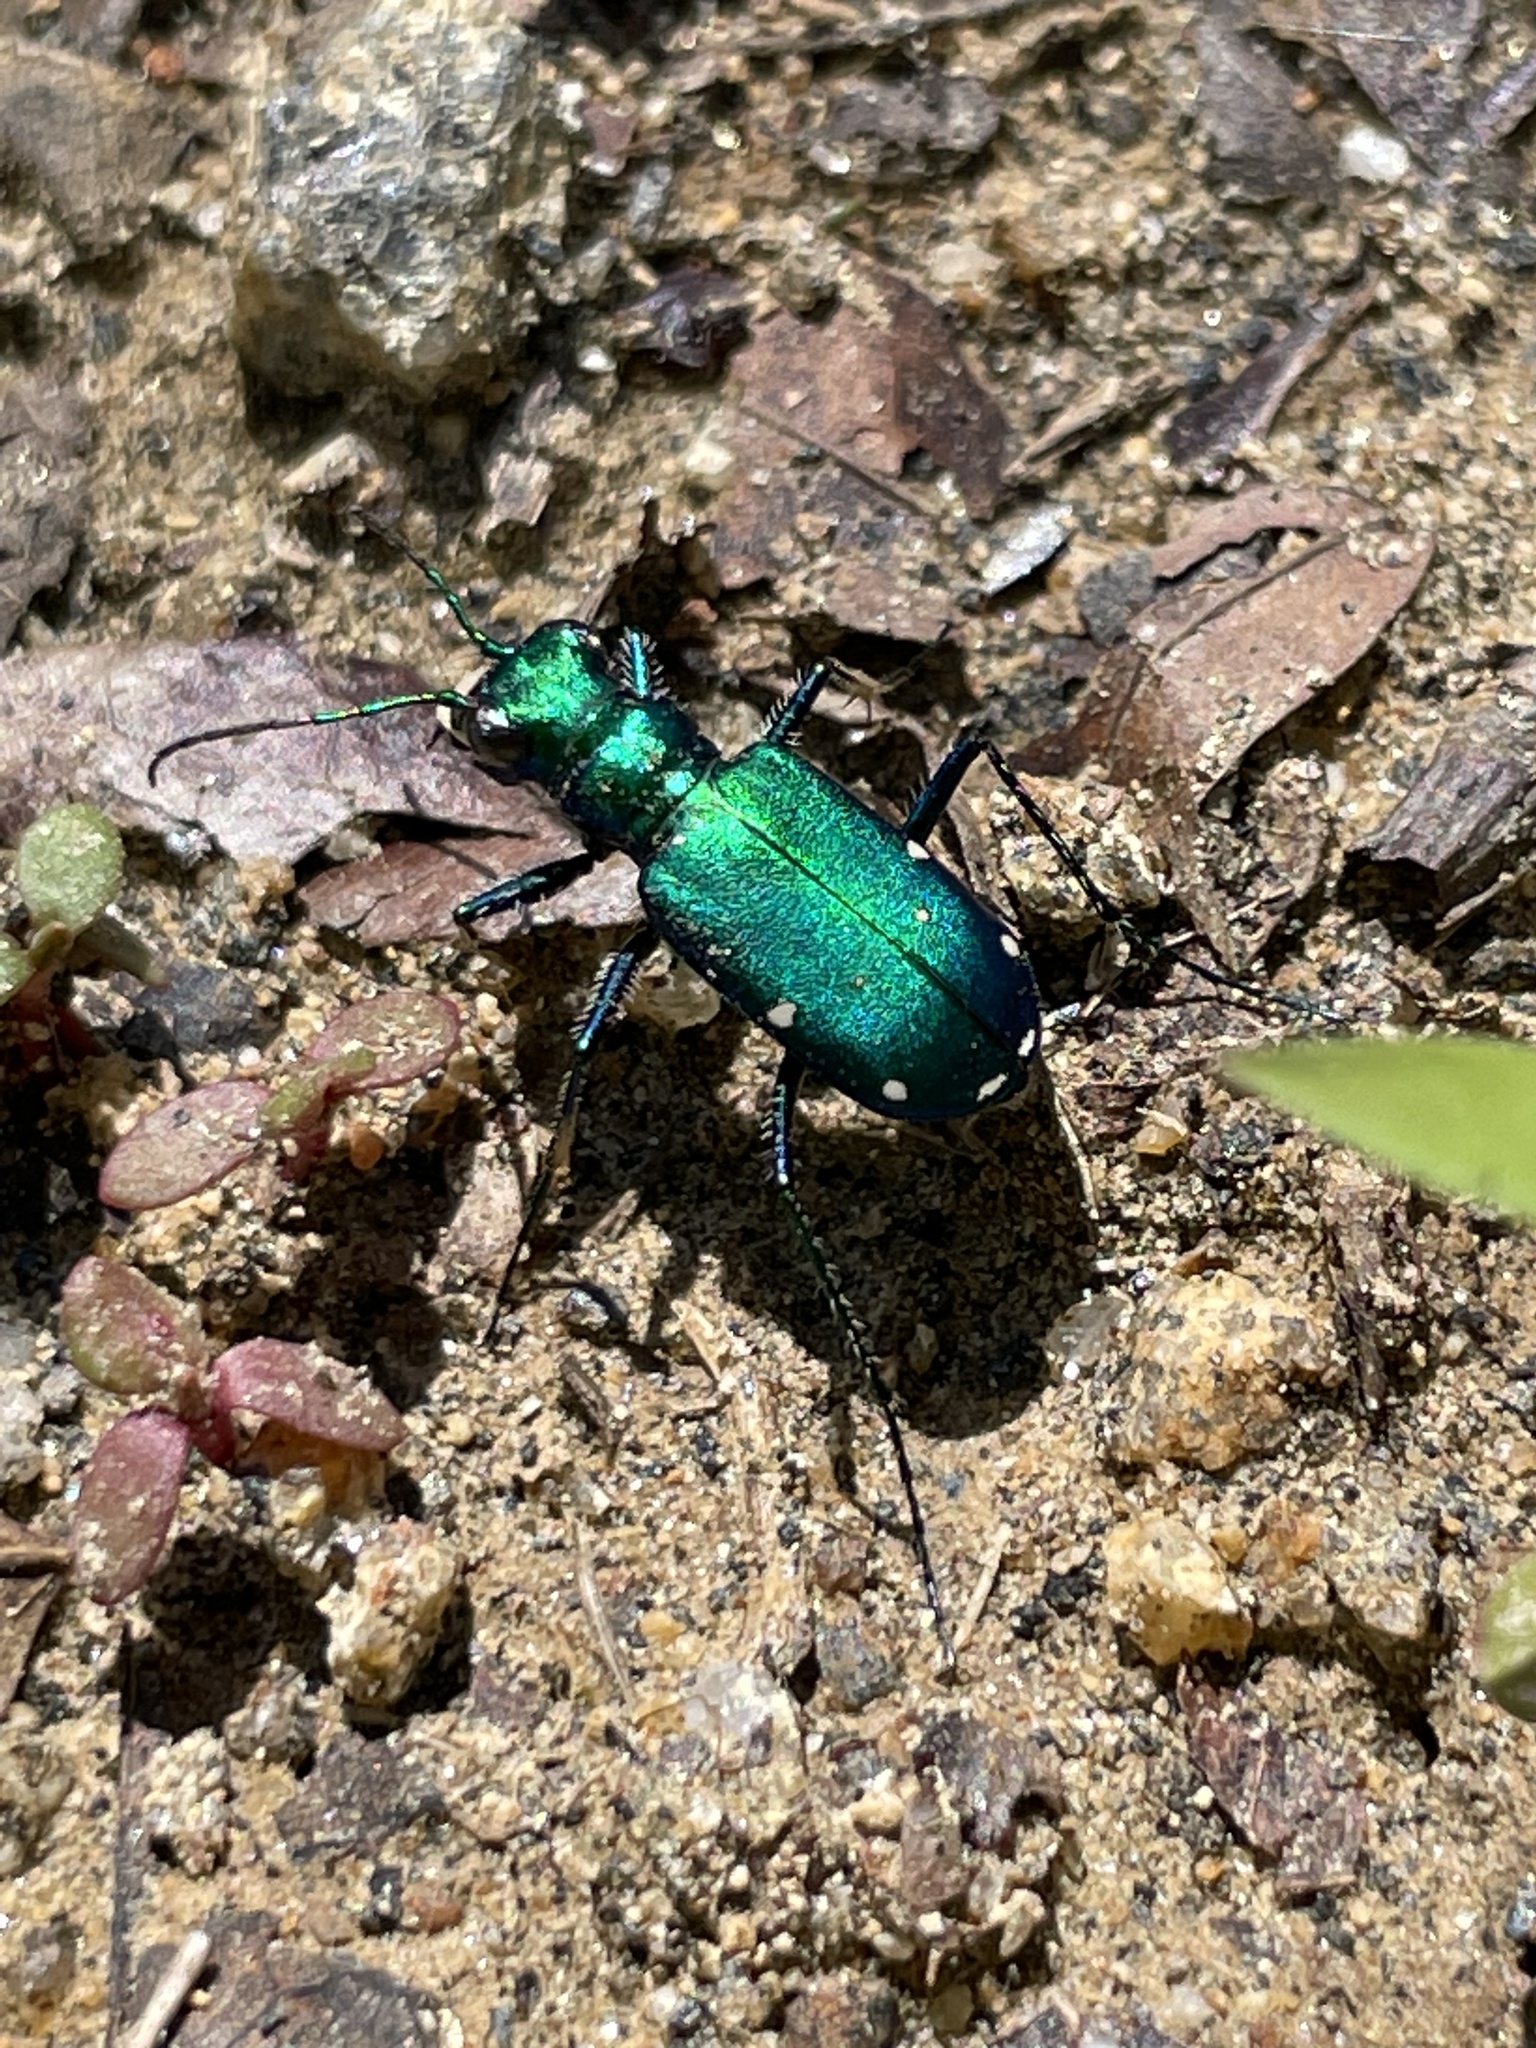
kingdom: Animalia
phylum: Arthropoda
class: Insecta
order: Coleoptera
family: Carabidae
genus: Cicindela
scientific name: Cicindela sexguttata
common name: Six-spotted tiger beetle
